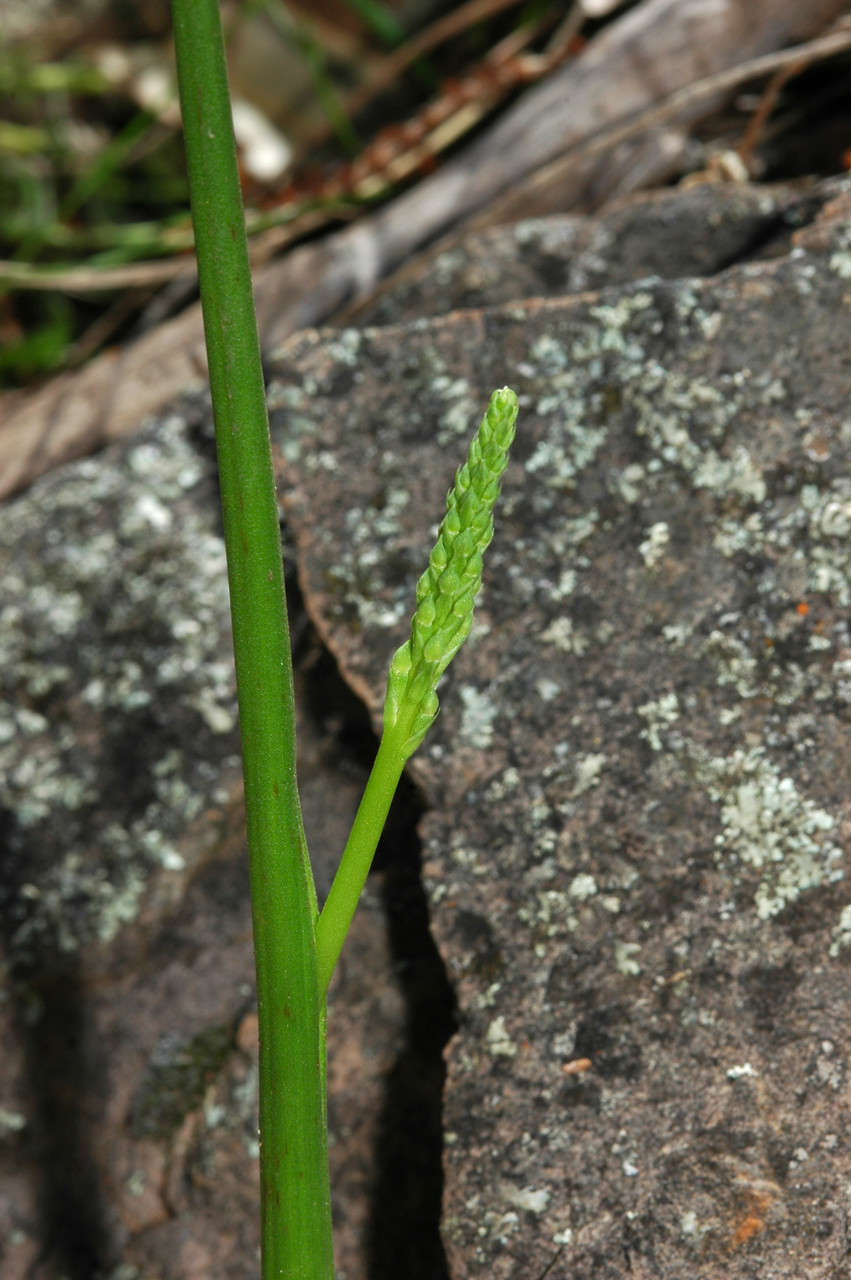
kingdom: Plantae
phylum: Tracheophyta
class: Liliopsida
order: Asparagales
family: Orchidaceae
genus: Microtis
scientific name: Microtis
